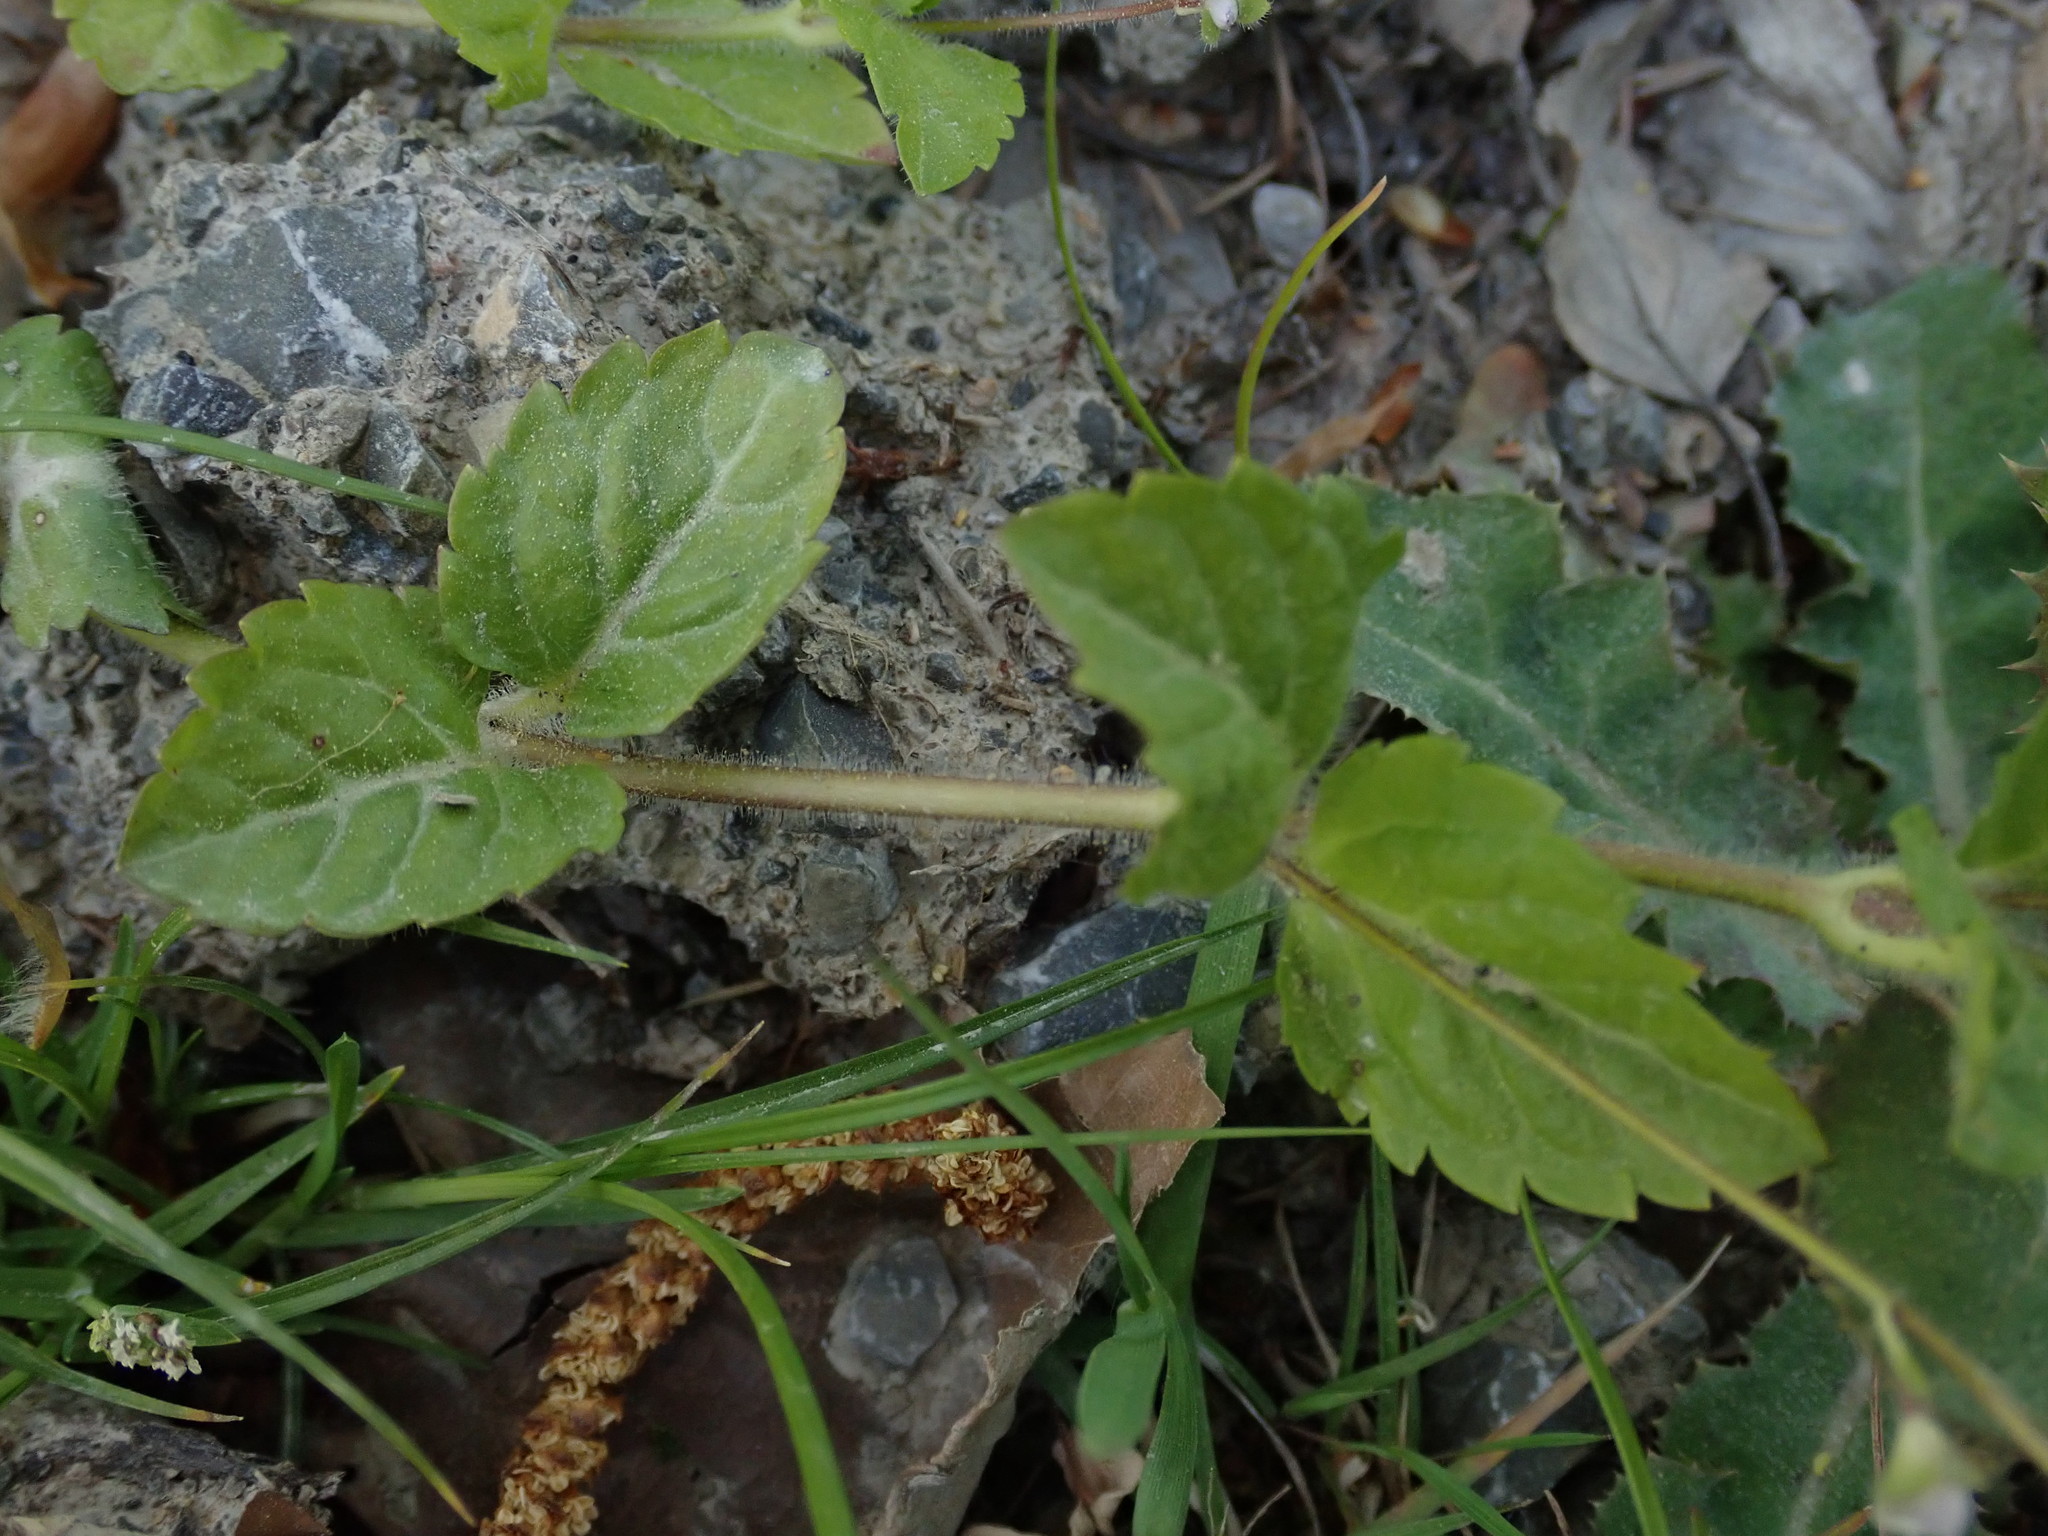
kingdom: Plantae
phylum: Tracheophyta
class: Magnoliopsida
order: Lamiales
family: Plantaginaceae
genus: Veronica
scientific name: Veronica montana
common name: Wood speedwell
